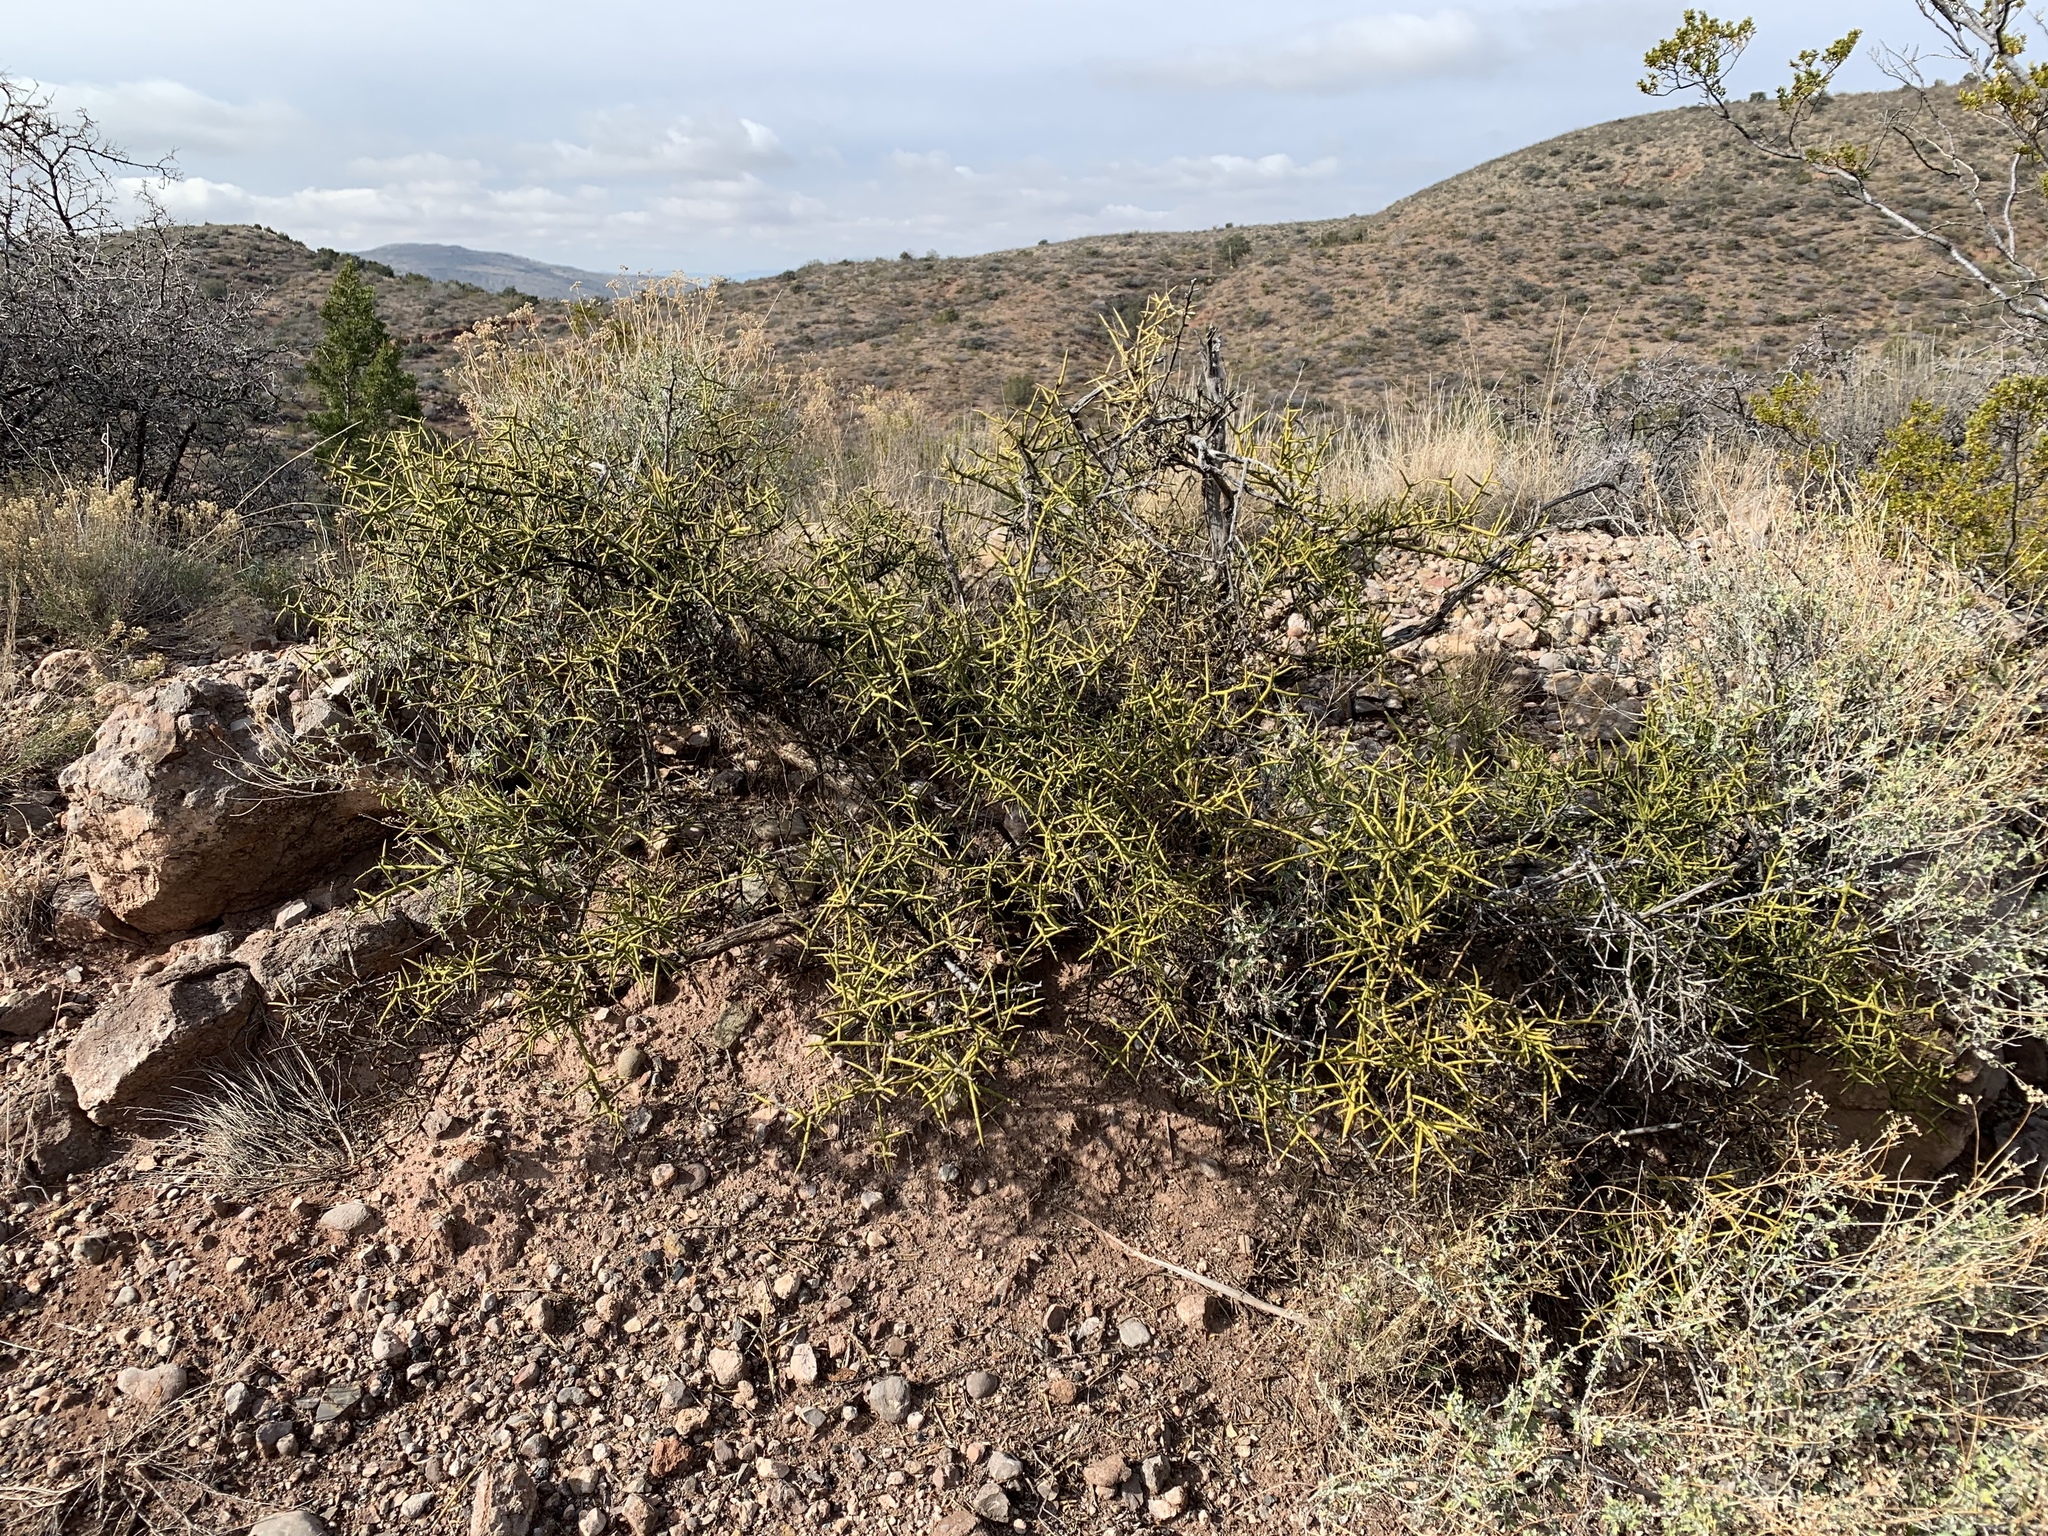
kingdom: Plantae
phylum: Tracheophyta
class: Magnoliopsida
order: Brassicales
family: Koeberliniaceae
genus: Koeberlinia
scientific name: Koeberlinia spinosa
